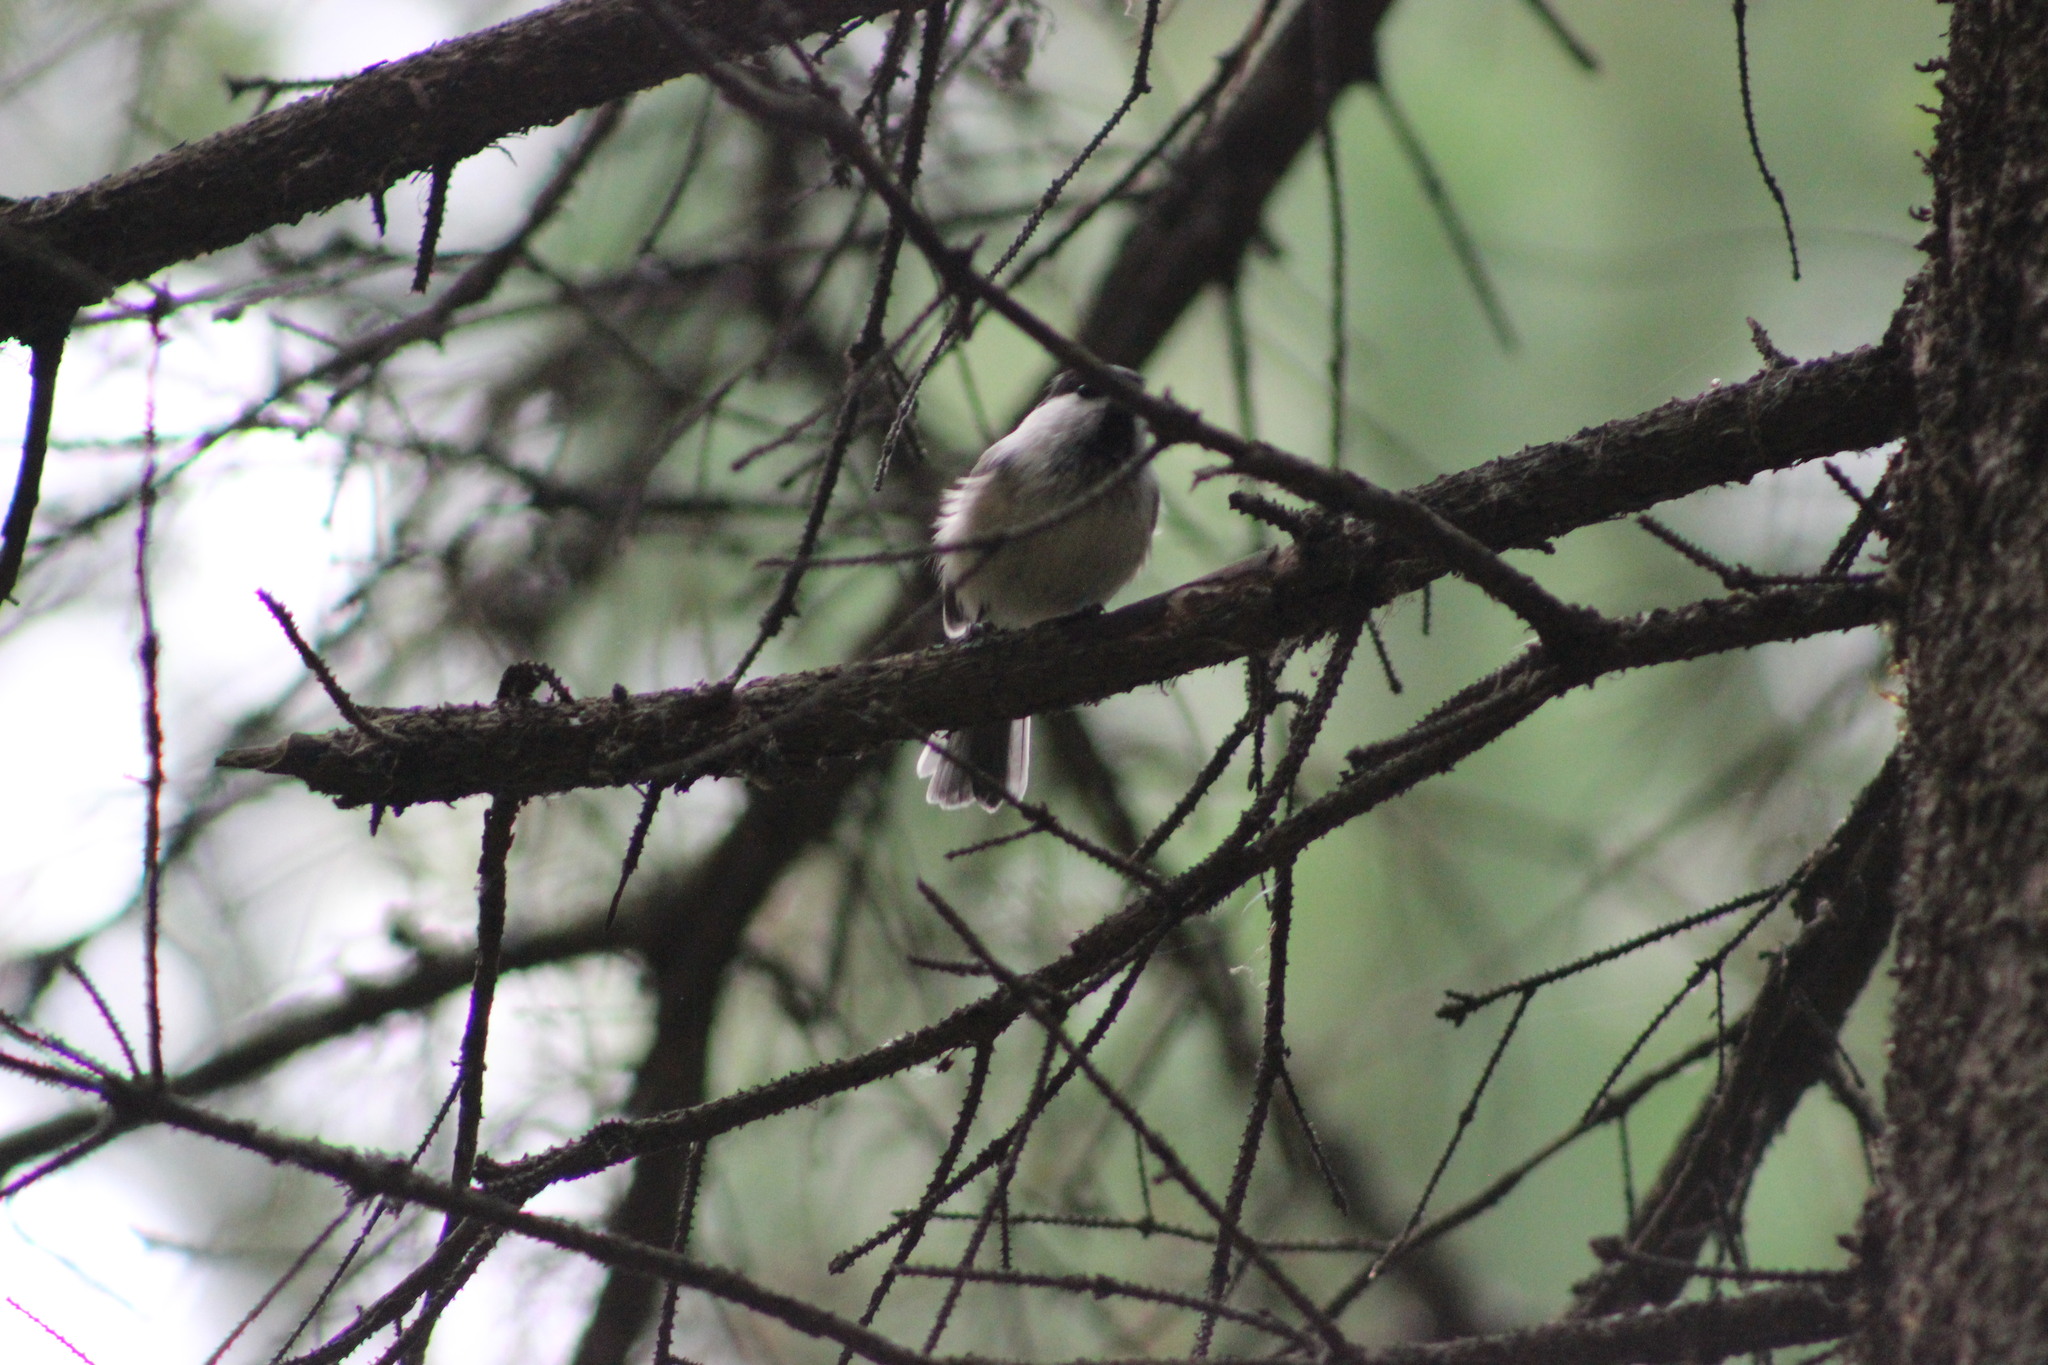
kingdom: Animalia
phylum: Chordata
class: Aves
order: Passeriformes
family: Paridae
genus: Poecile
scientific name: Poecile montanus
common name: Willow tit
